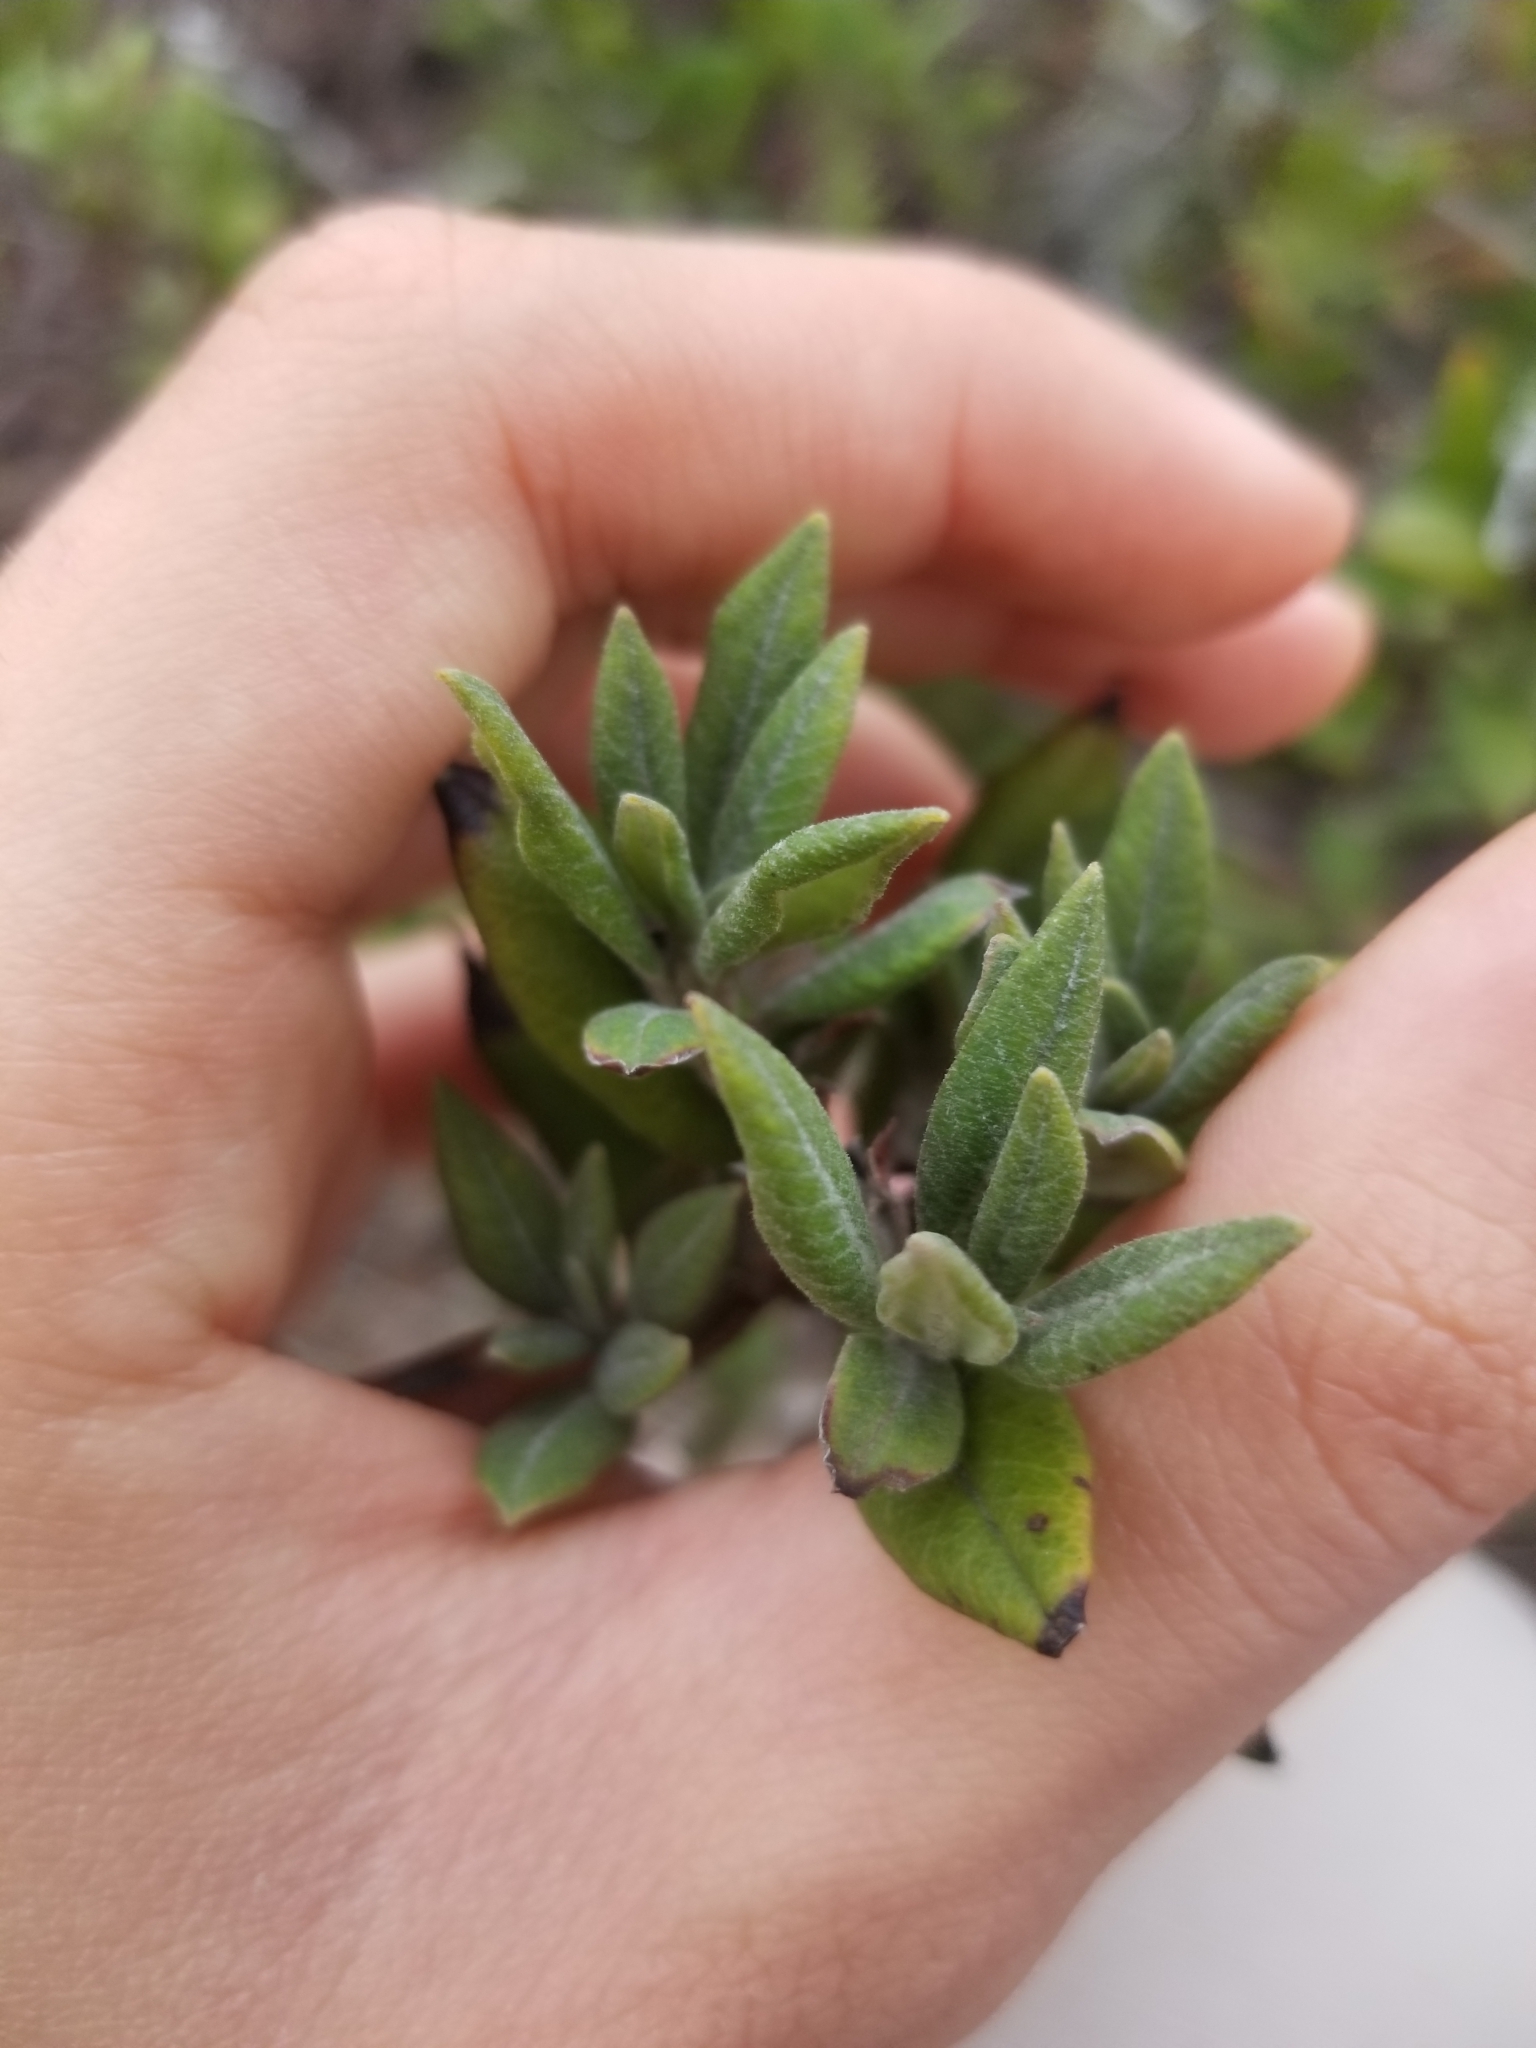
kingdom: Plantae
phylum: Tracheophyta
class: Magnoliopsida
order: Ericales
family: Ericaceae
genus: Arctostaphylos
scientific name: Arctostaphylos bicolor
